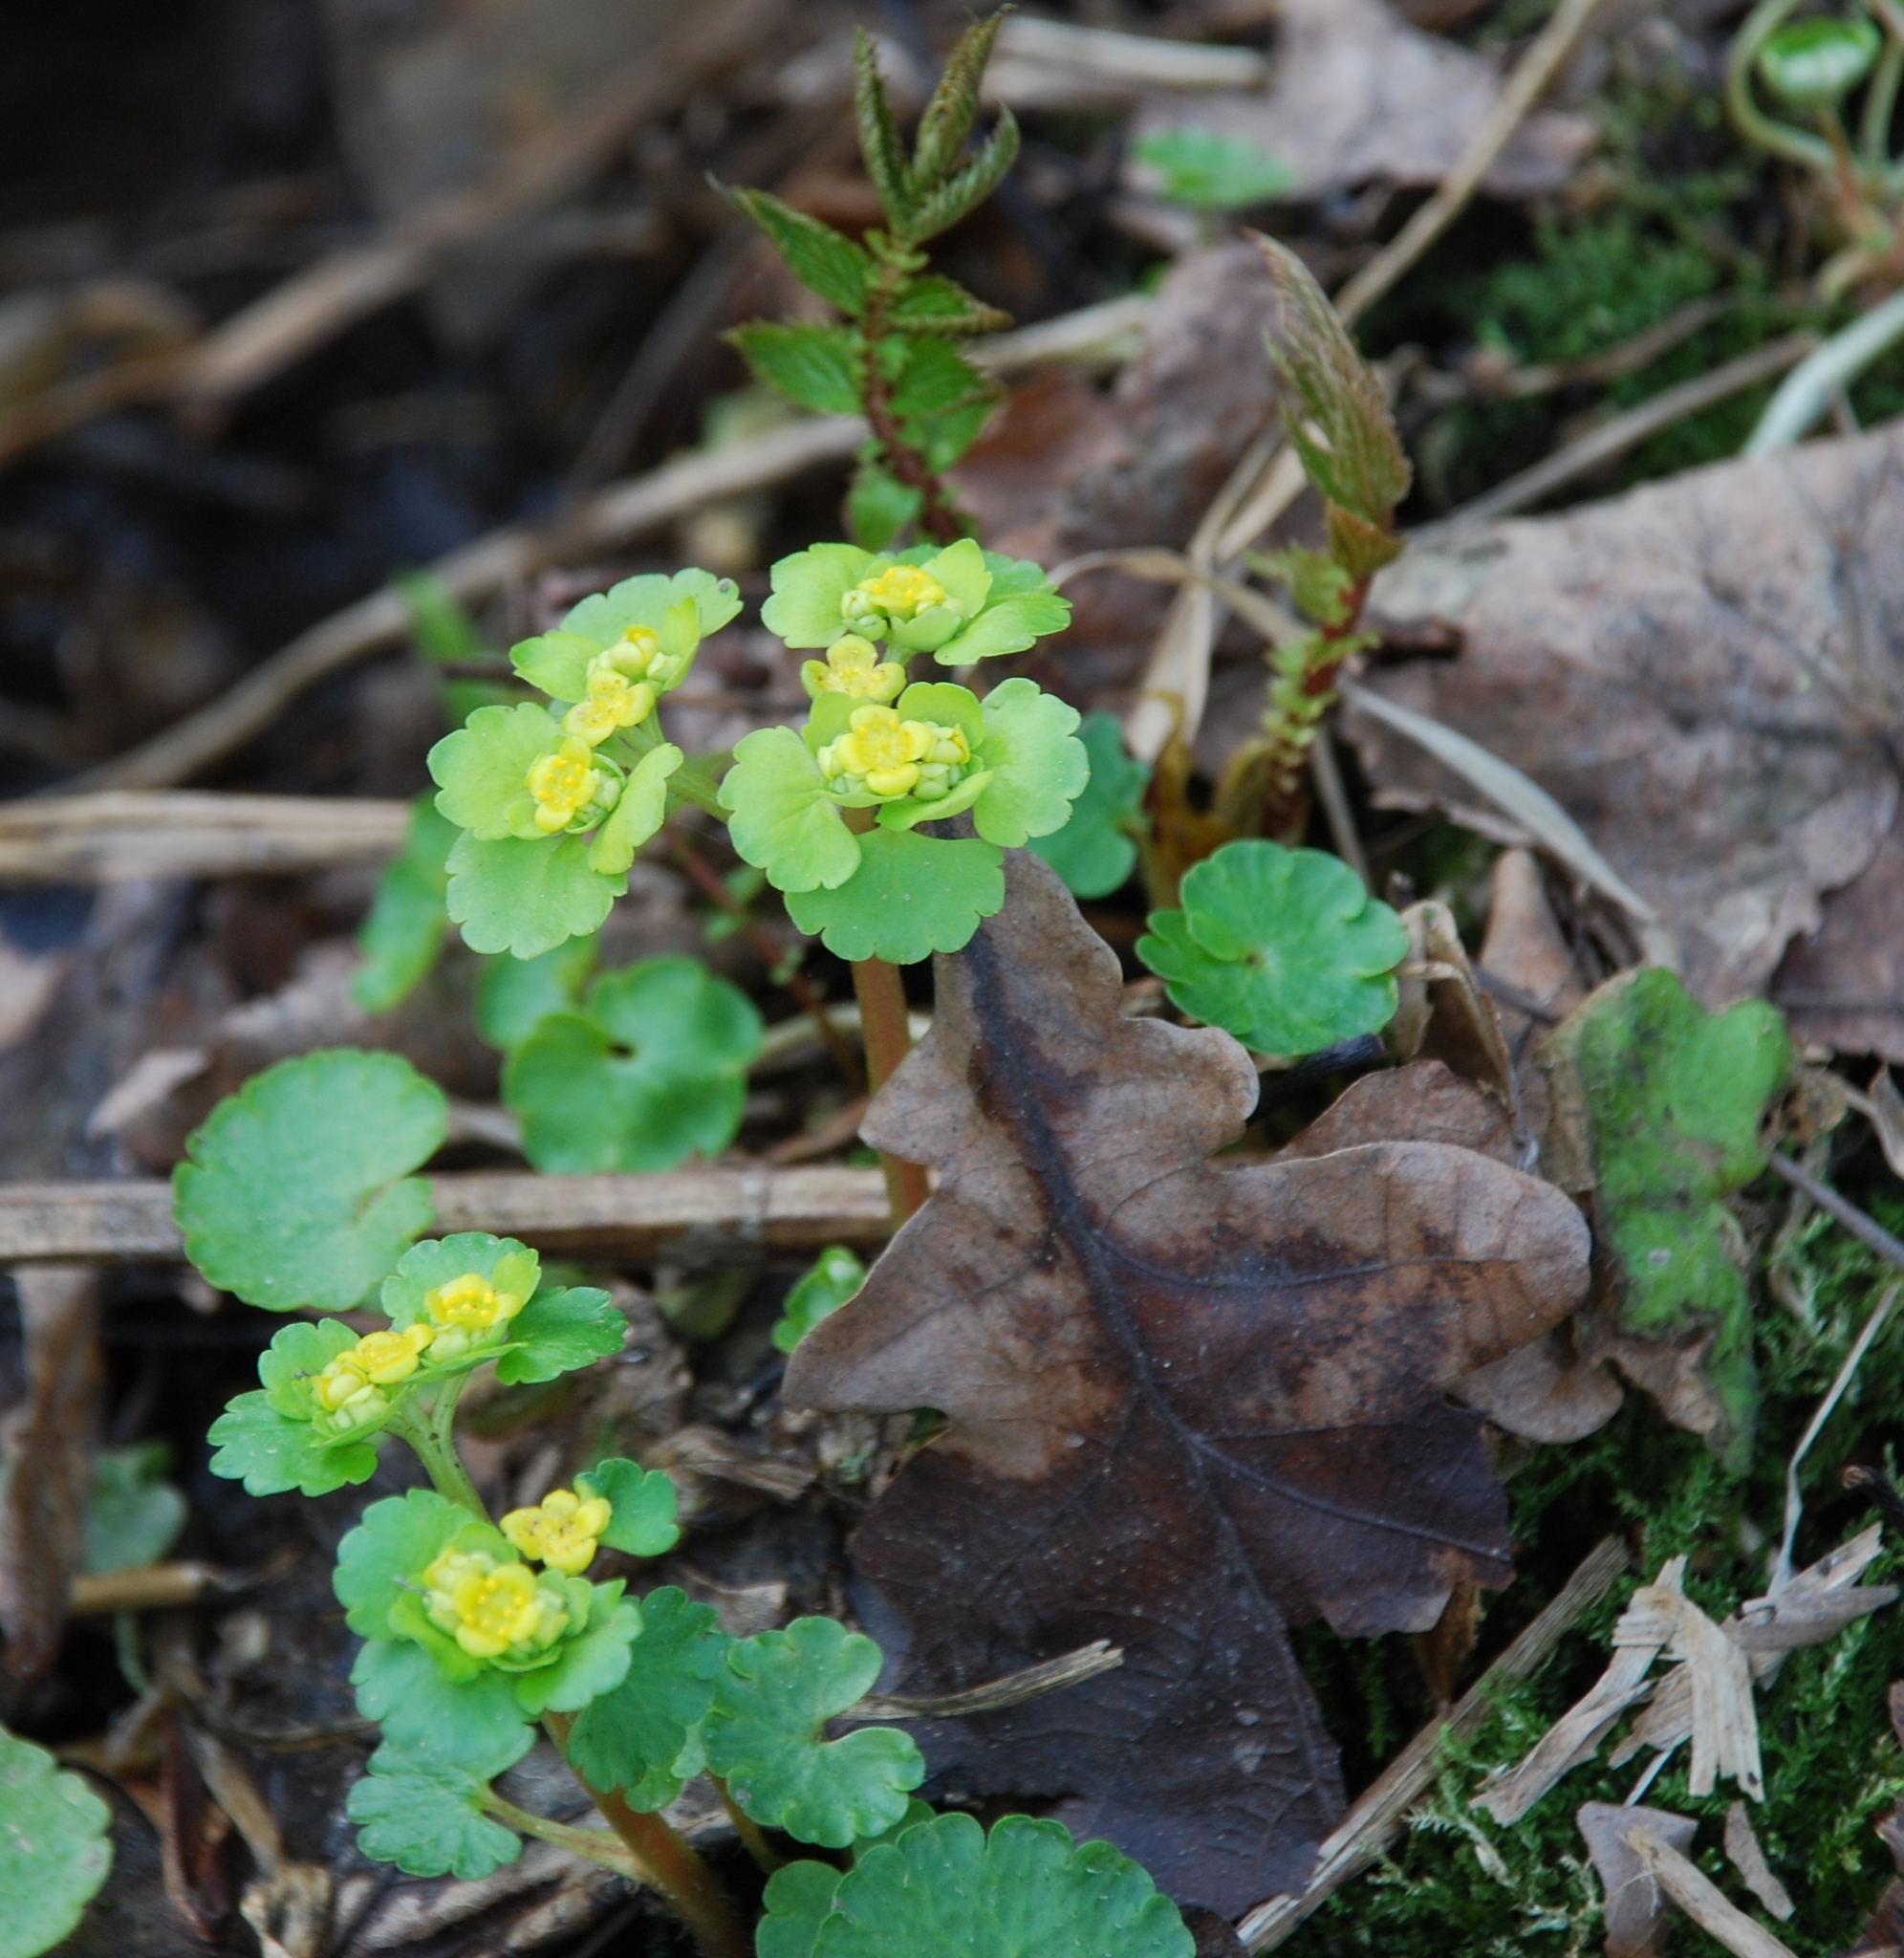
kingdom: Plantae
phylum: Tracheophyta
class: Magnoliopsida
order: Saxifragales
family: Saxifragaceae
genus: Chrysosplenium
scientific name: Chrysosplenium alternifolium
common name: Alternate-leaved golden-saxifrage
